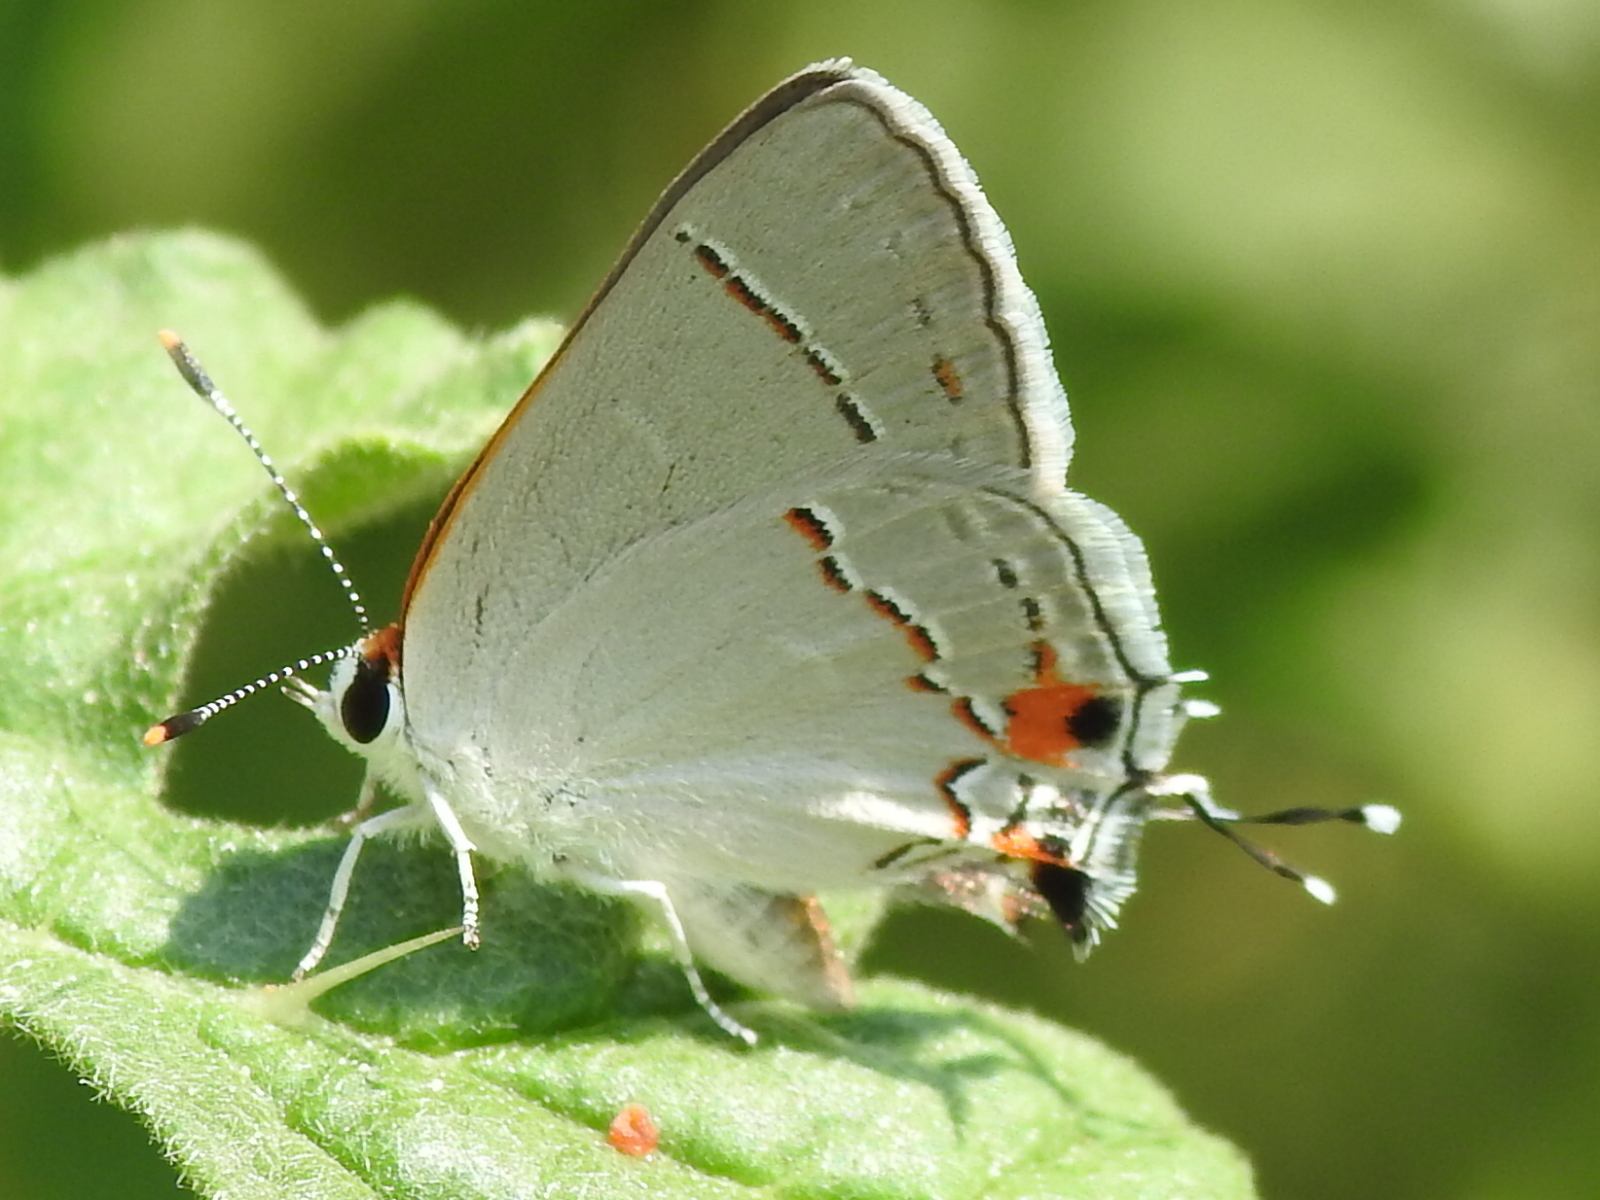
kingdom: Animalia
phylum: Arthropoda
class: Insecta
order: Lepidoptera
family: Lycaenidae
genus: Strymon
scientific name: Strymon melinus
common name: Gray hairstreak
